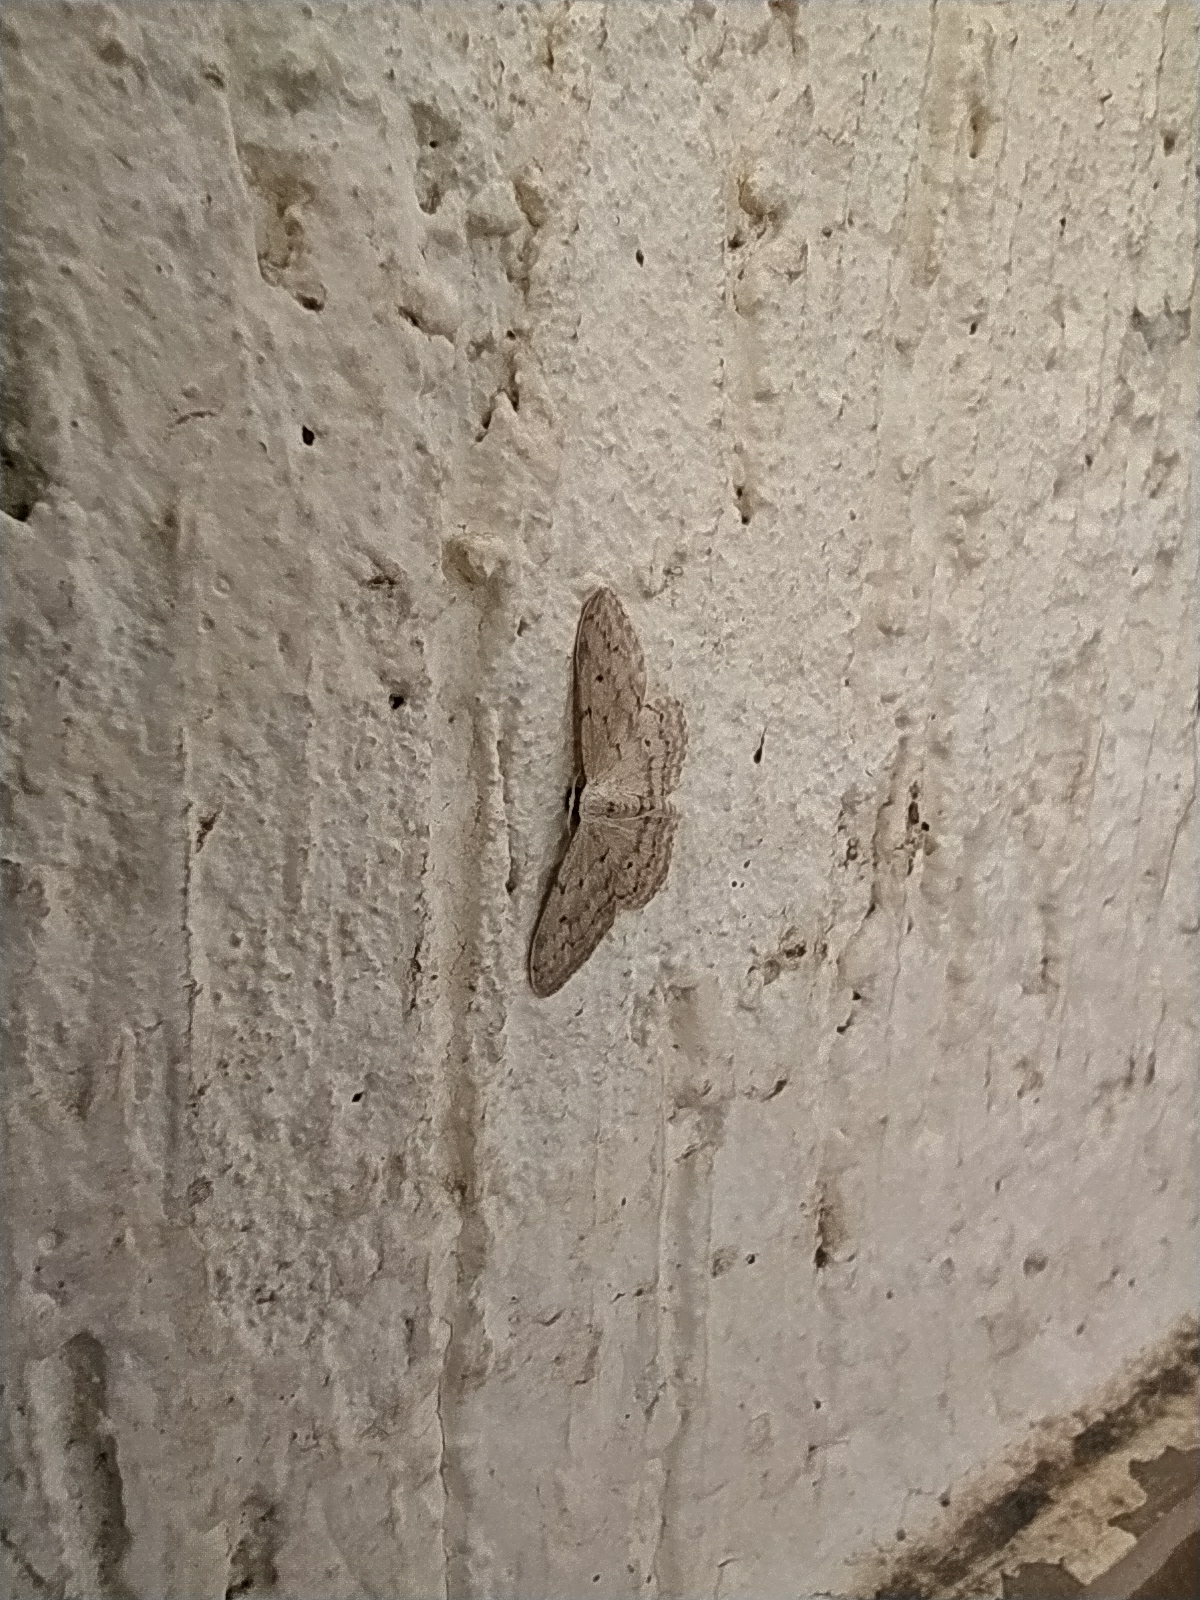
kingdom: Animalia
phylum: Arthropoda
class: Insecta
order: Lepidoptera
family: Geometridae
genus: Idaea
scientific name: Idaea seriata
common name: Small dusty wave
